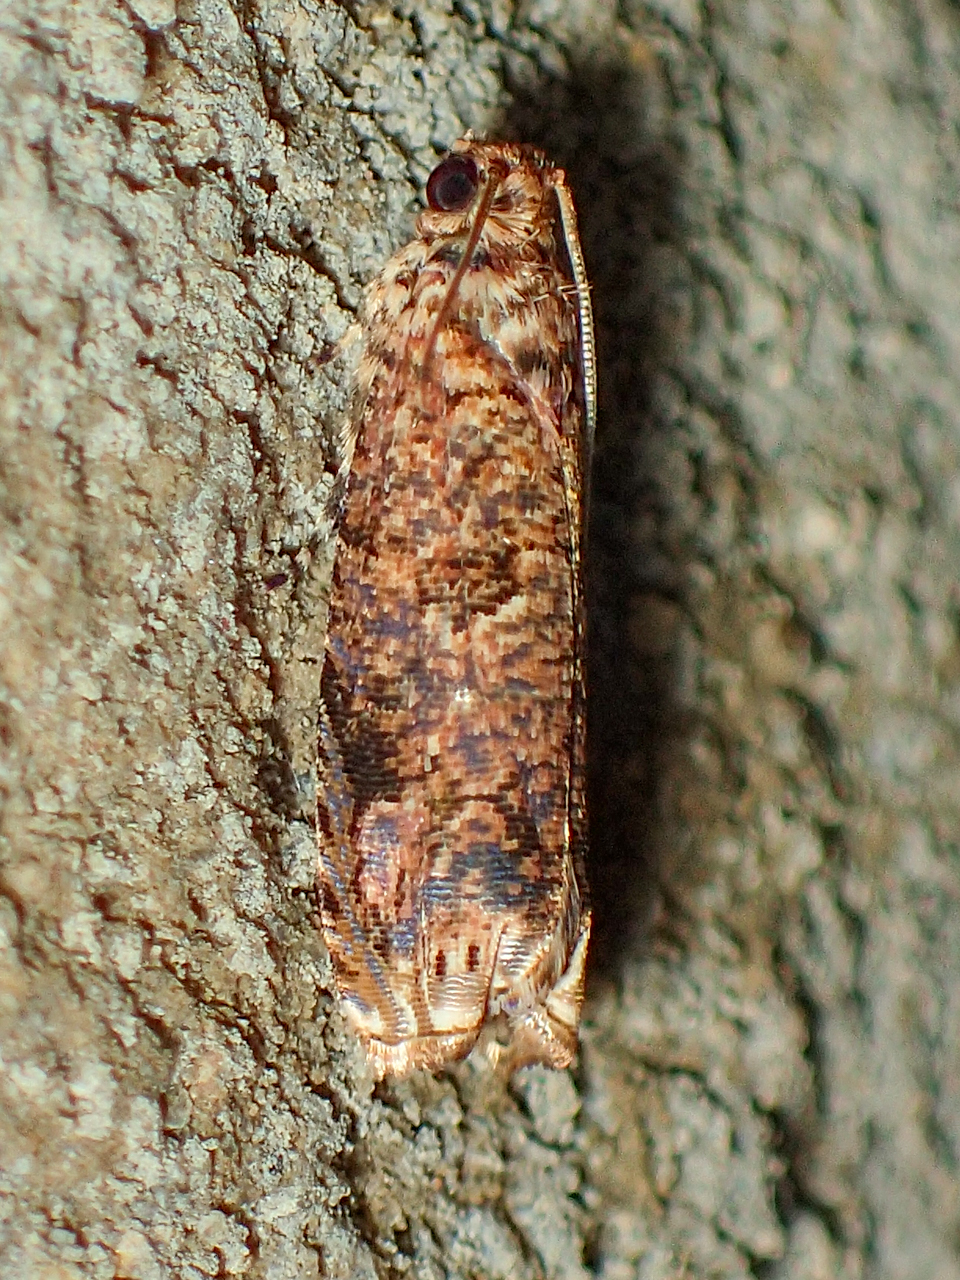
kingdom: Animalia
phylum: Arthropoda
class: Insecta
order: Lepidoptera
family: Tortricidae
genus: Episimus
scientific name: Episimus argutana
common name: Sumac leaftier moth
